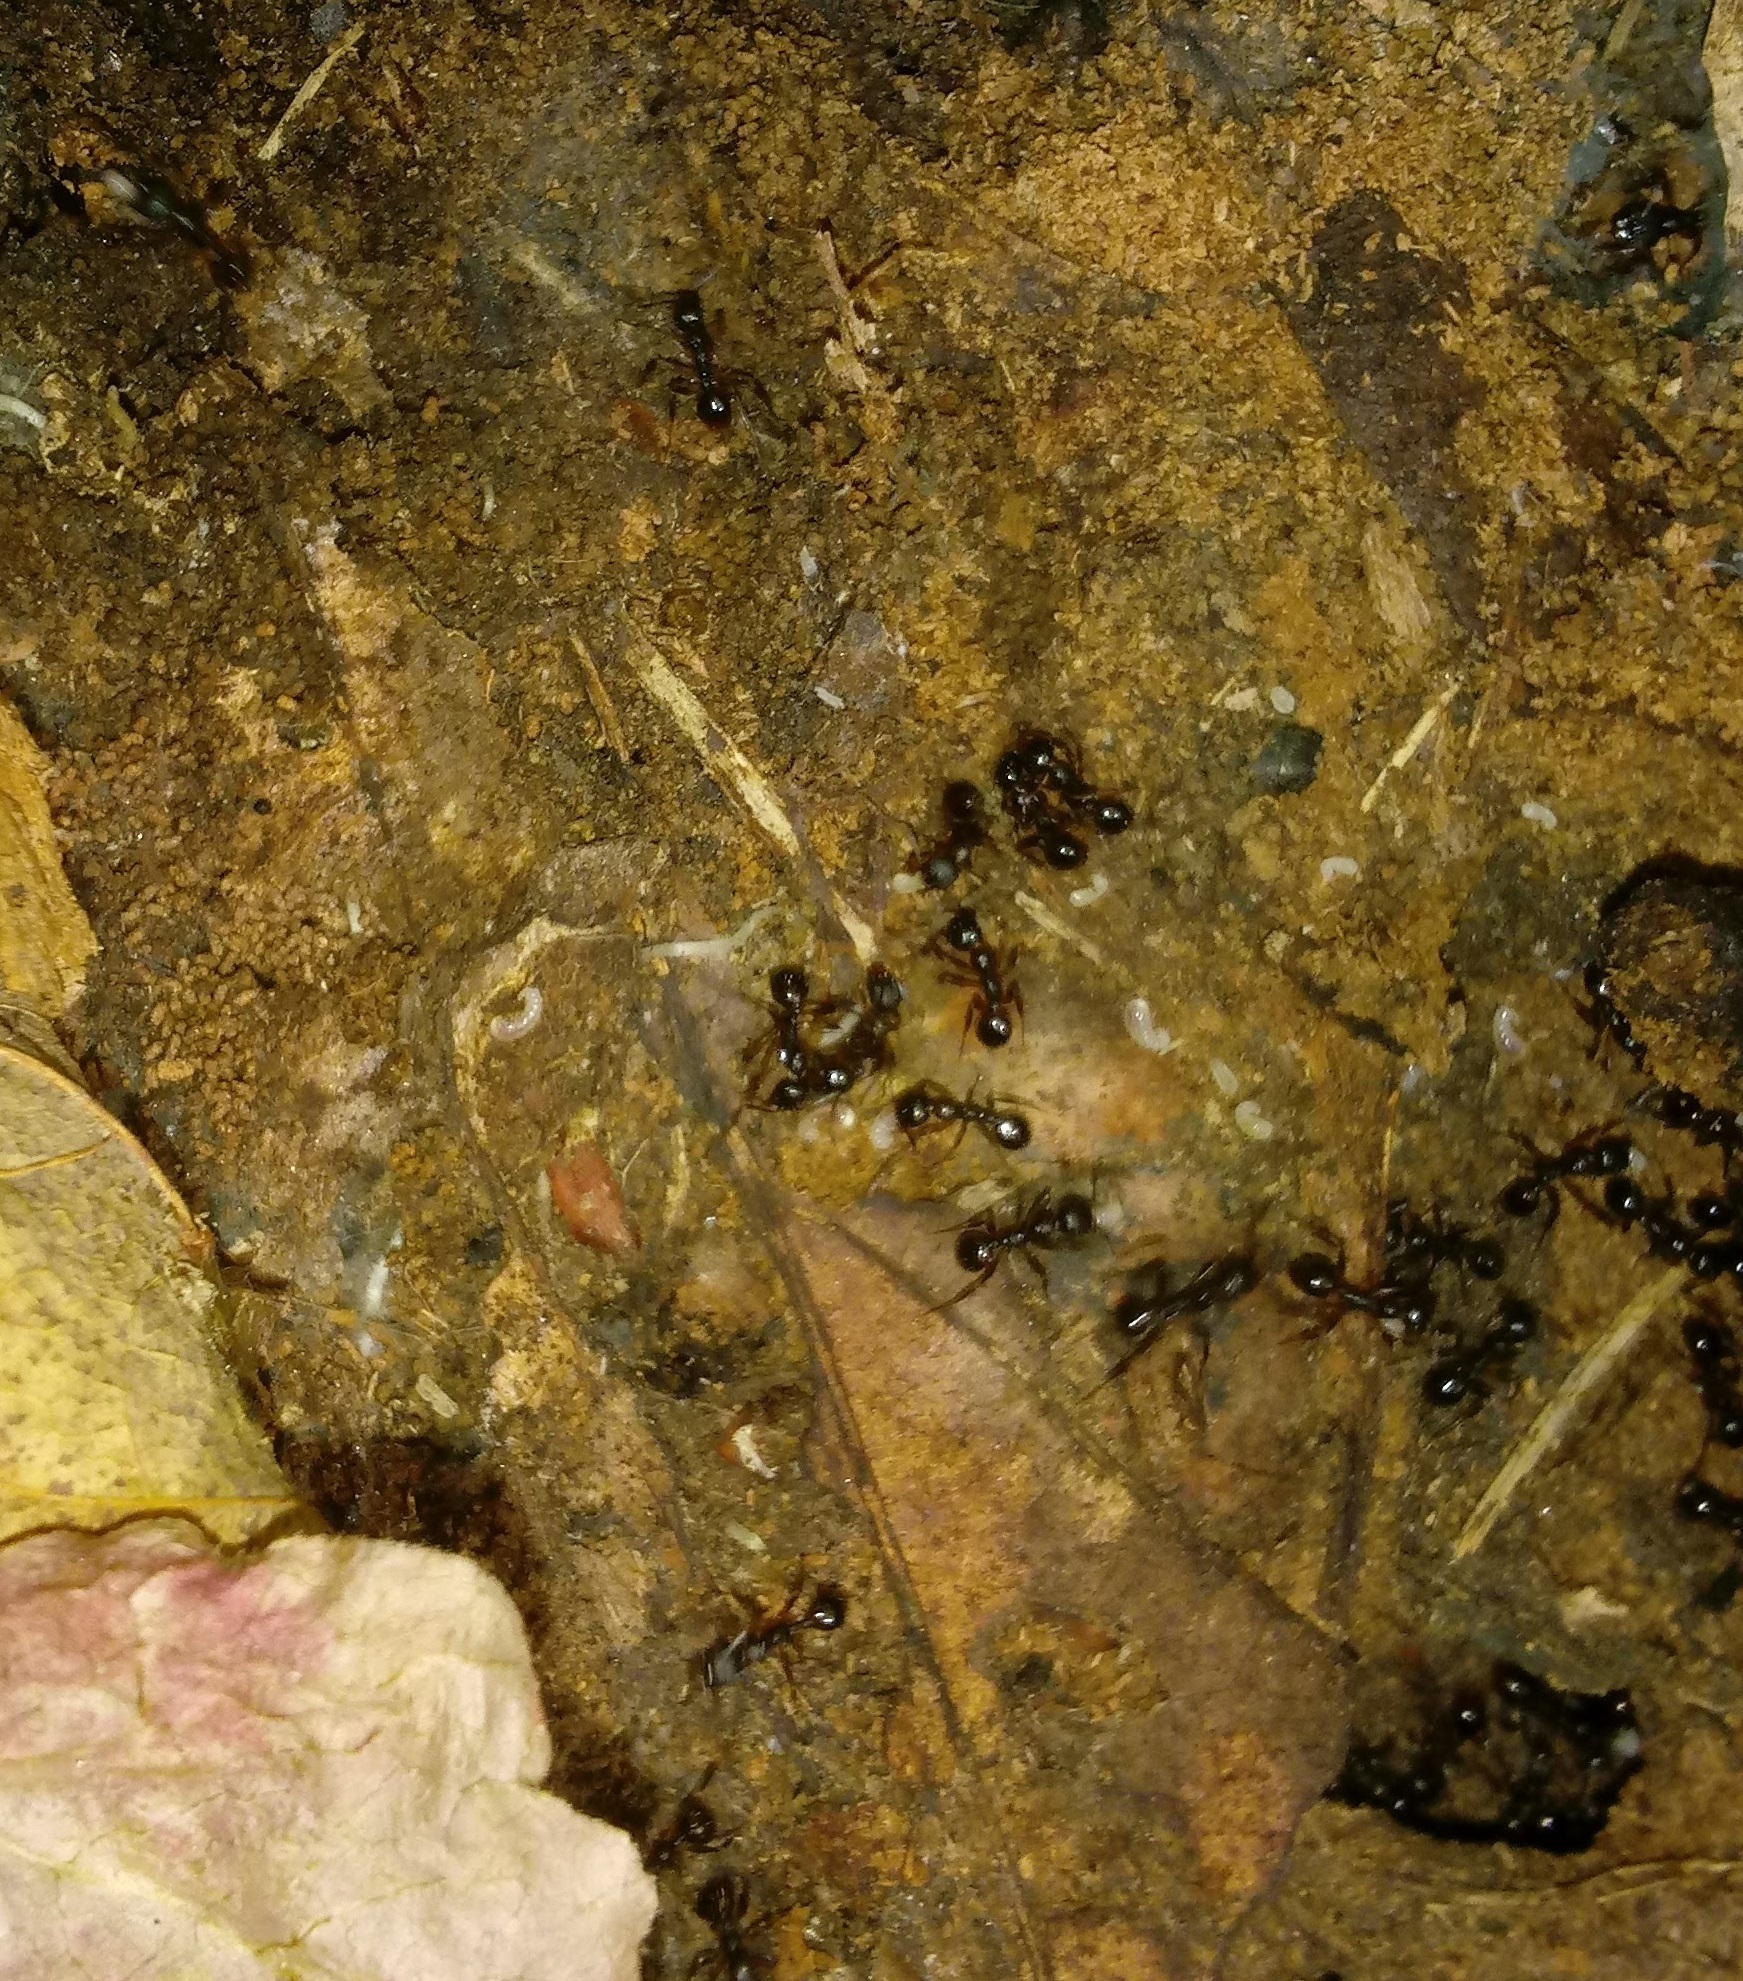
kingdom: Animalia
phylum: Arthropoda
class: Insecta
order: Hymenoptera
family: Formicidae
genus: Aphaenogaster
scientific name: Aphaenogaster
